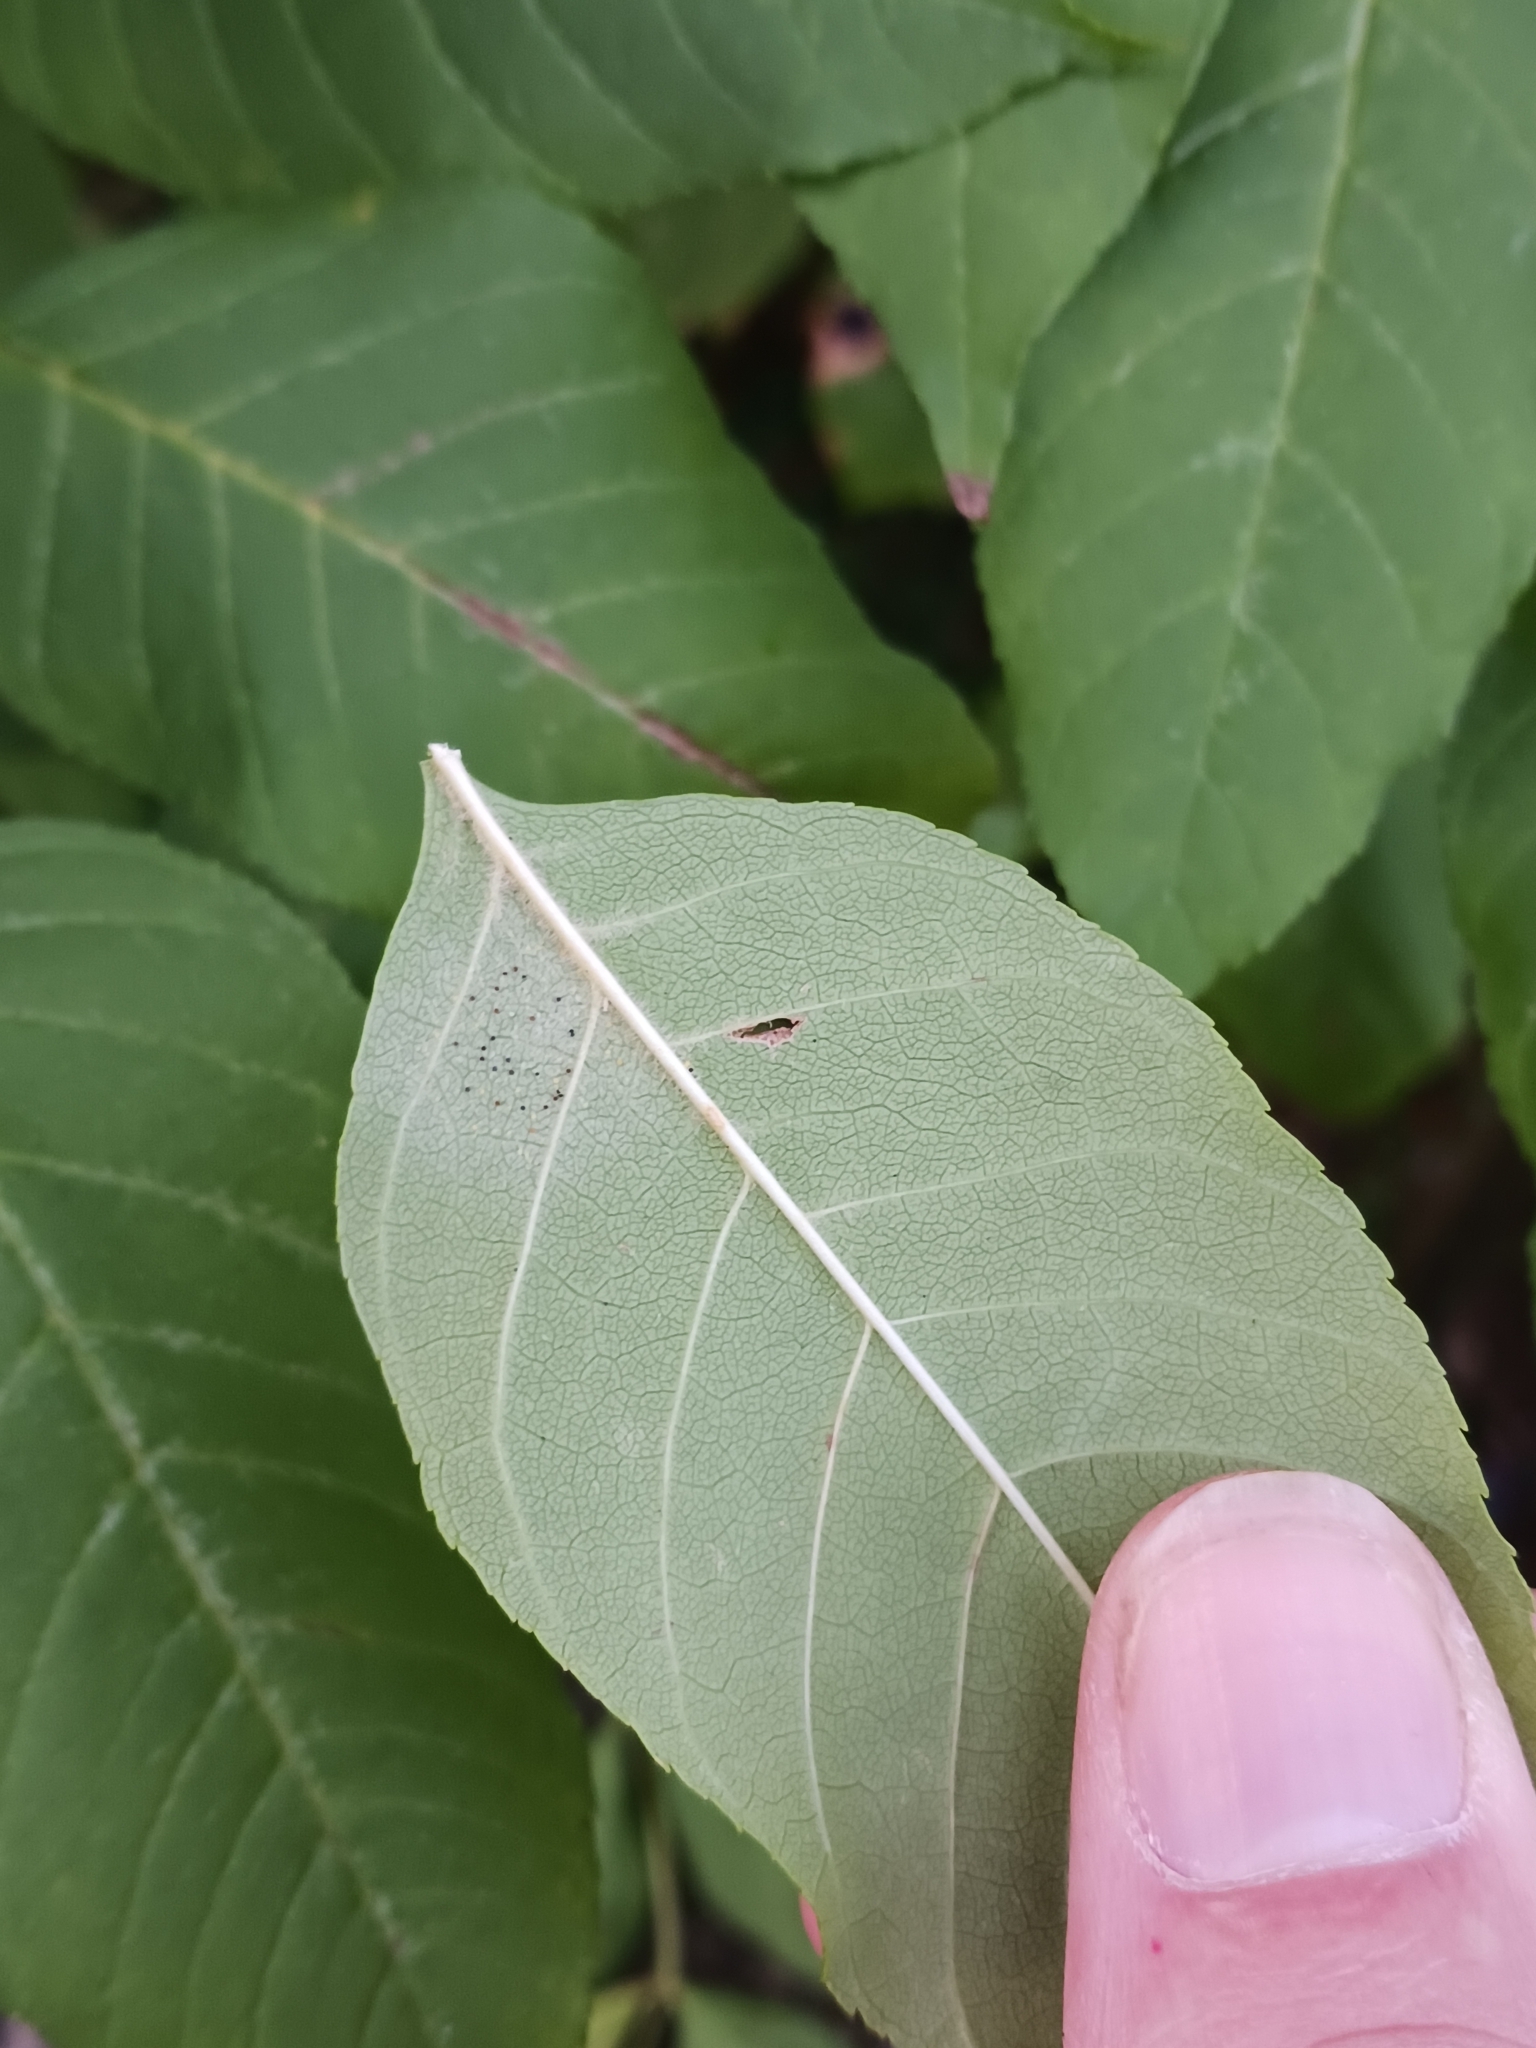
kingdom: Fungi
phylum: Ascomycota
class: Leotiomycetes
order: Helotiales
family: Erysiphaceae
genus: Phyllactinia
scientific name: Phyllactinia fraxini
